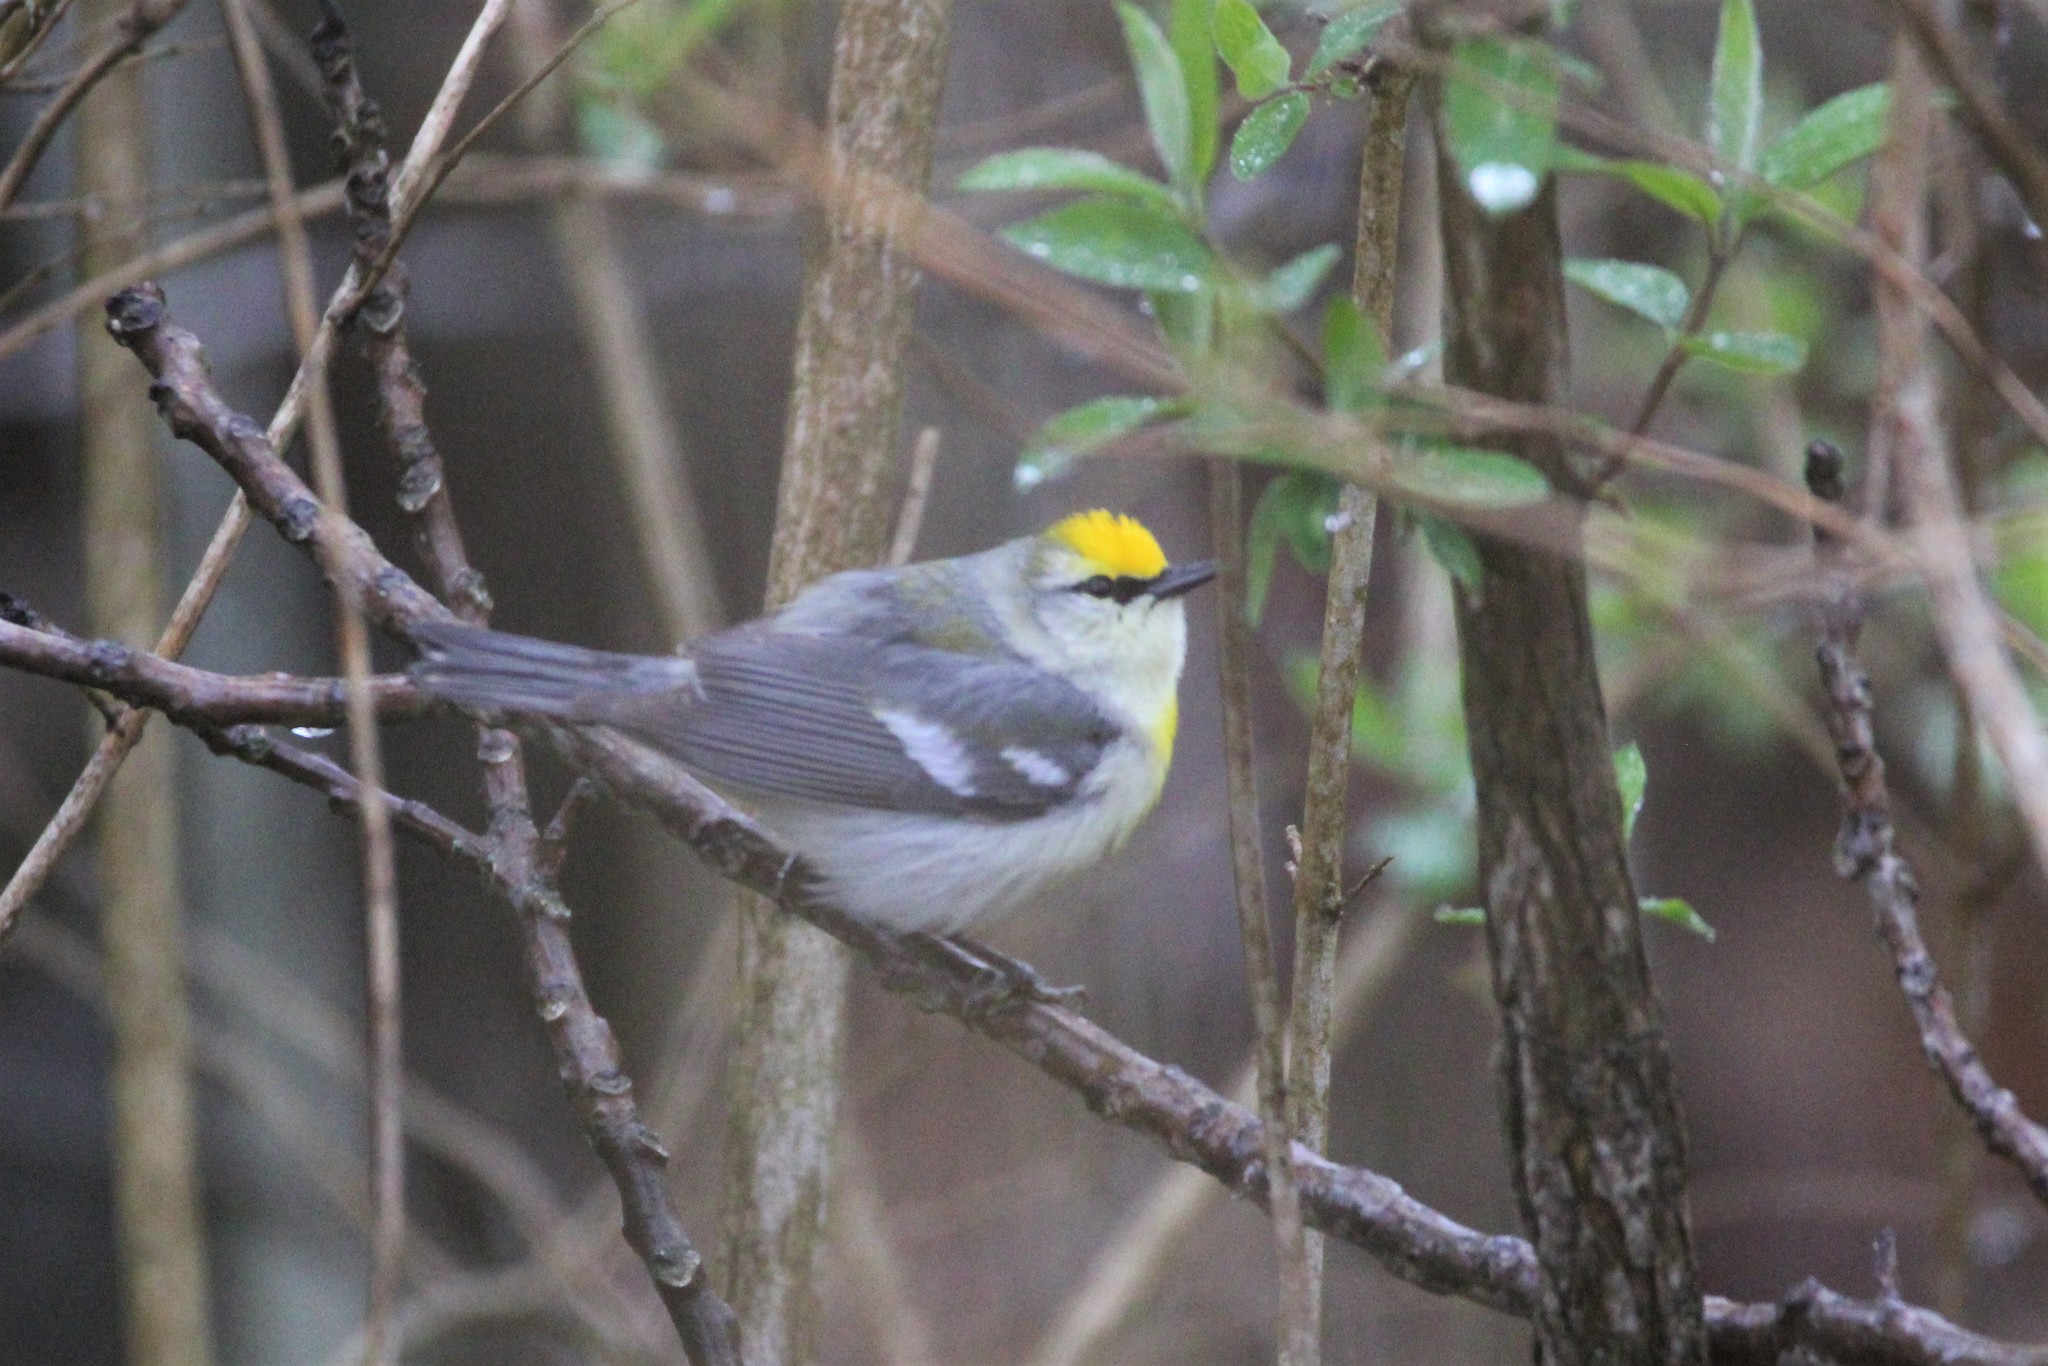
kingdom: Animalia
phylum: Chordata
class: Aves
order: Passeriformes
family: Parulidae
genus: Vermivora
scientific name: Vermivora
